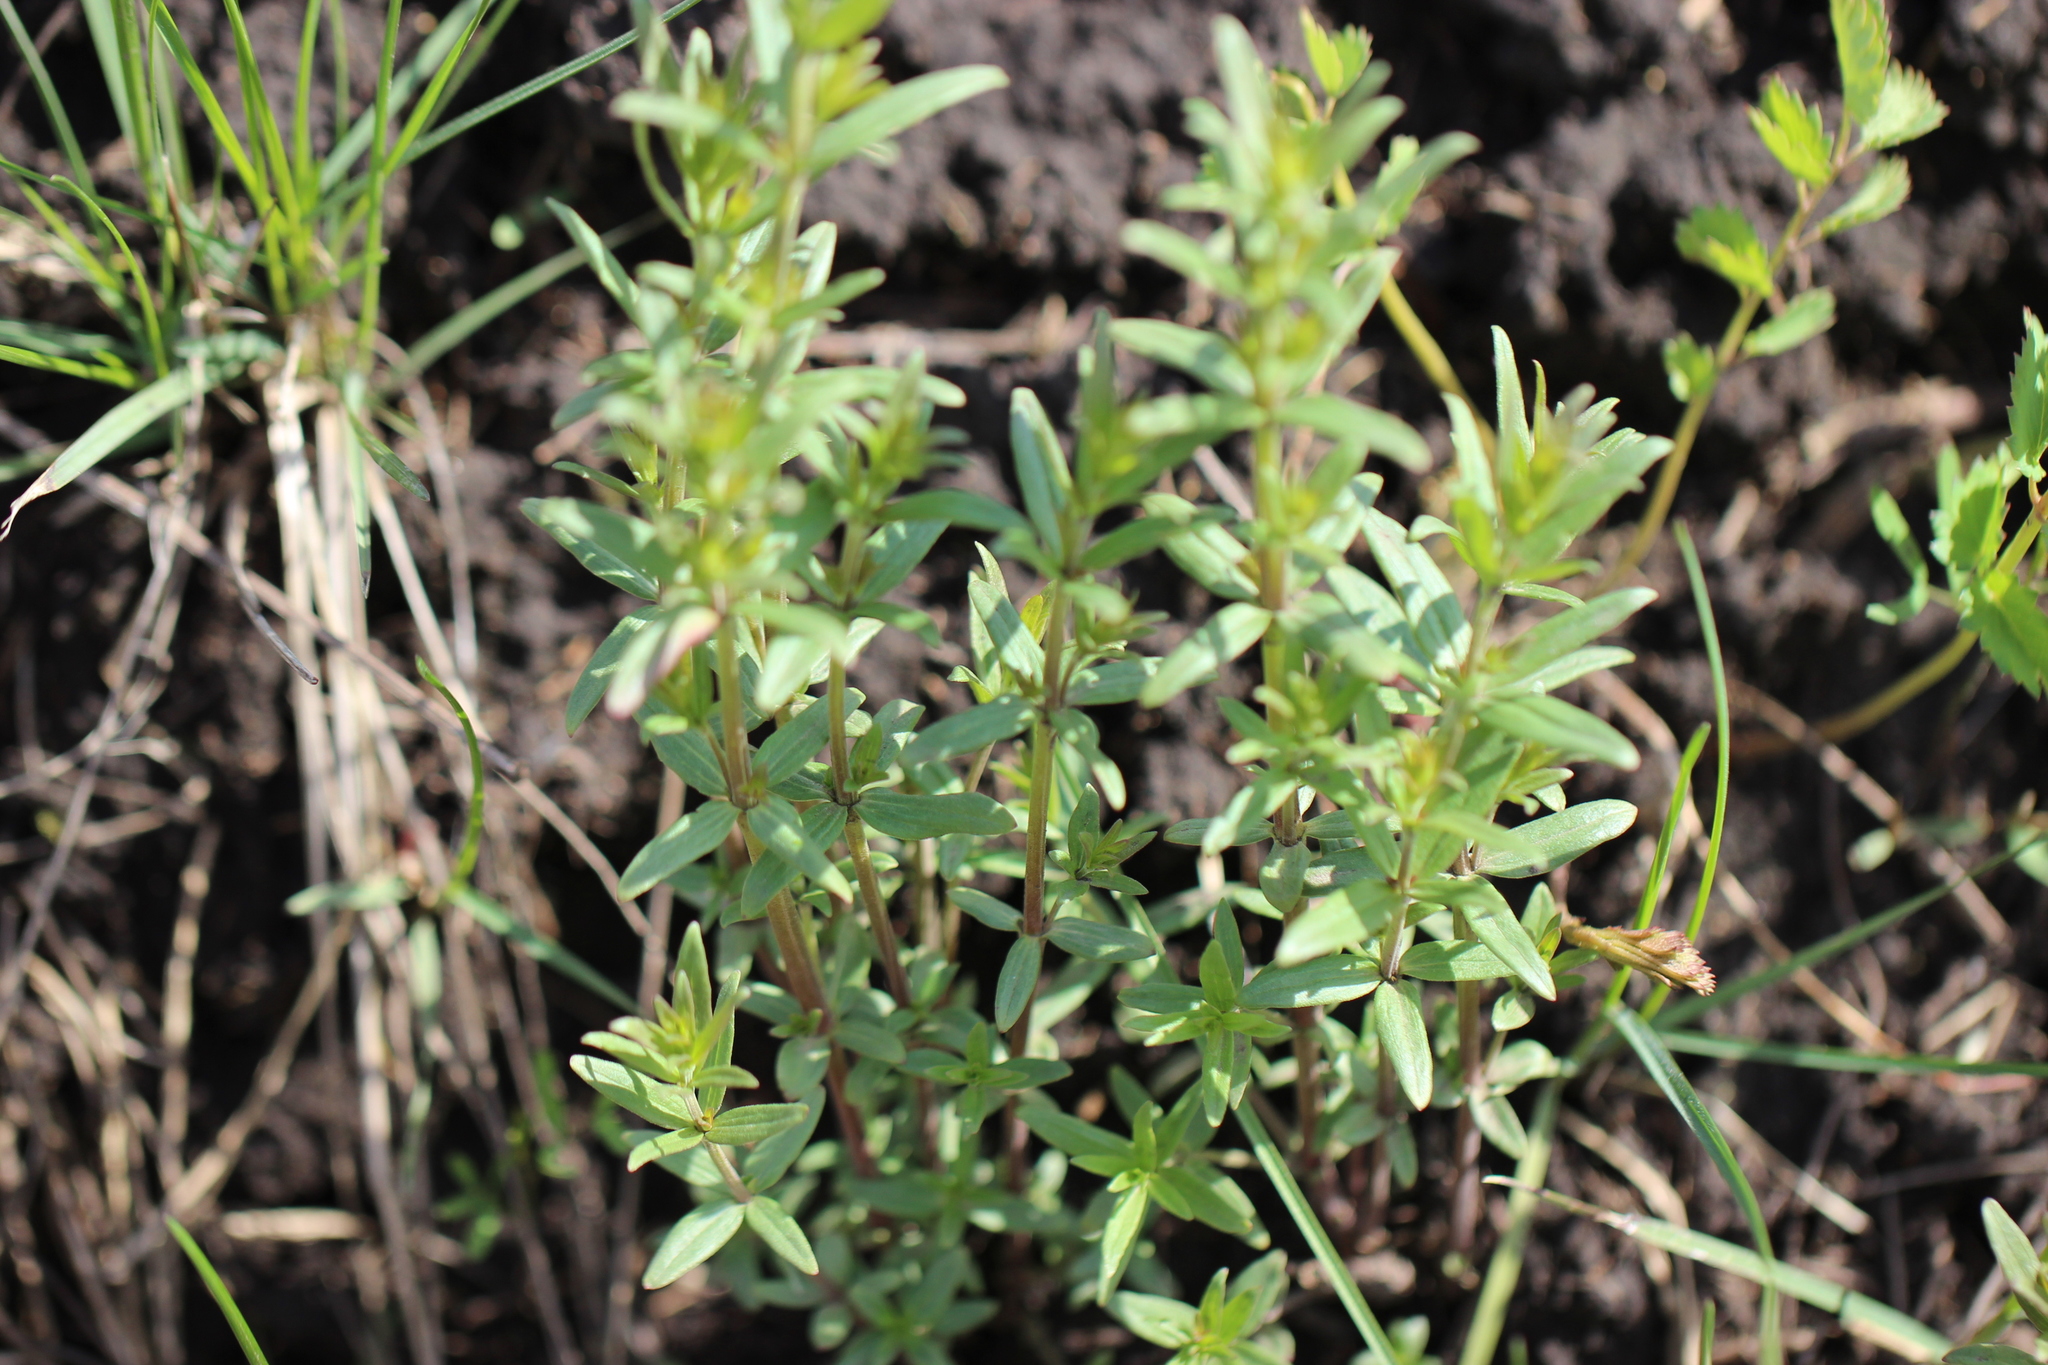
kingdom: Plantae
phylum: Tracheophyta
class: Magnoliopsida
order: Gentianales
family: Rubiaceae
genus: Galium
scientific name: Galium boreale
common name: Northern bedstraw
